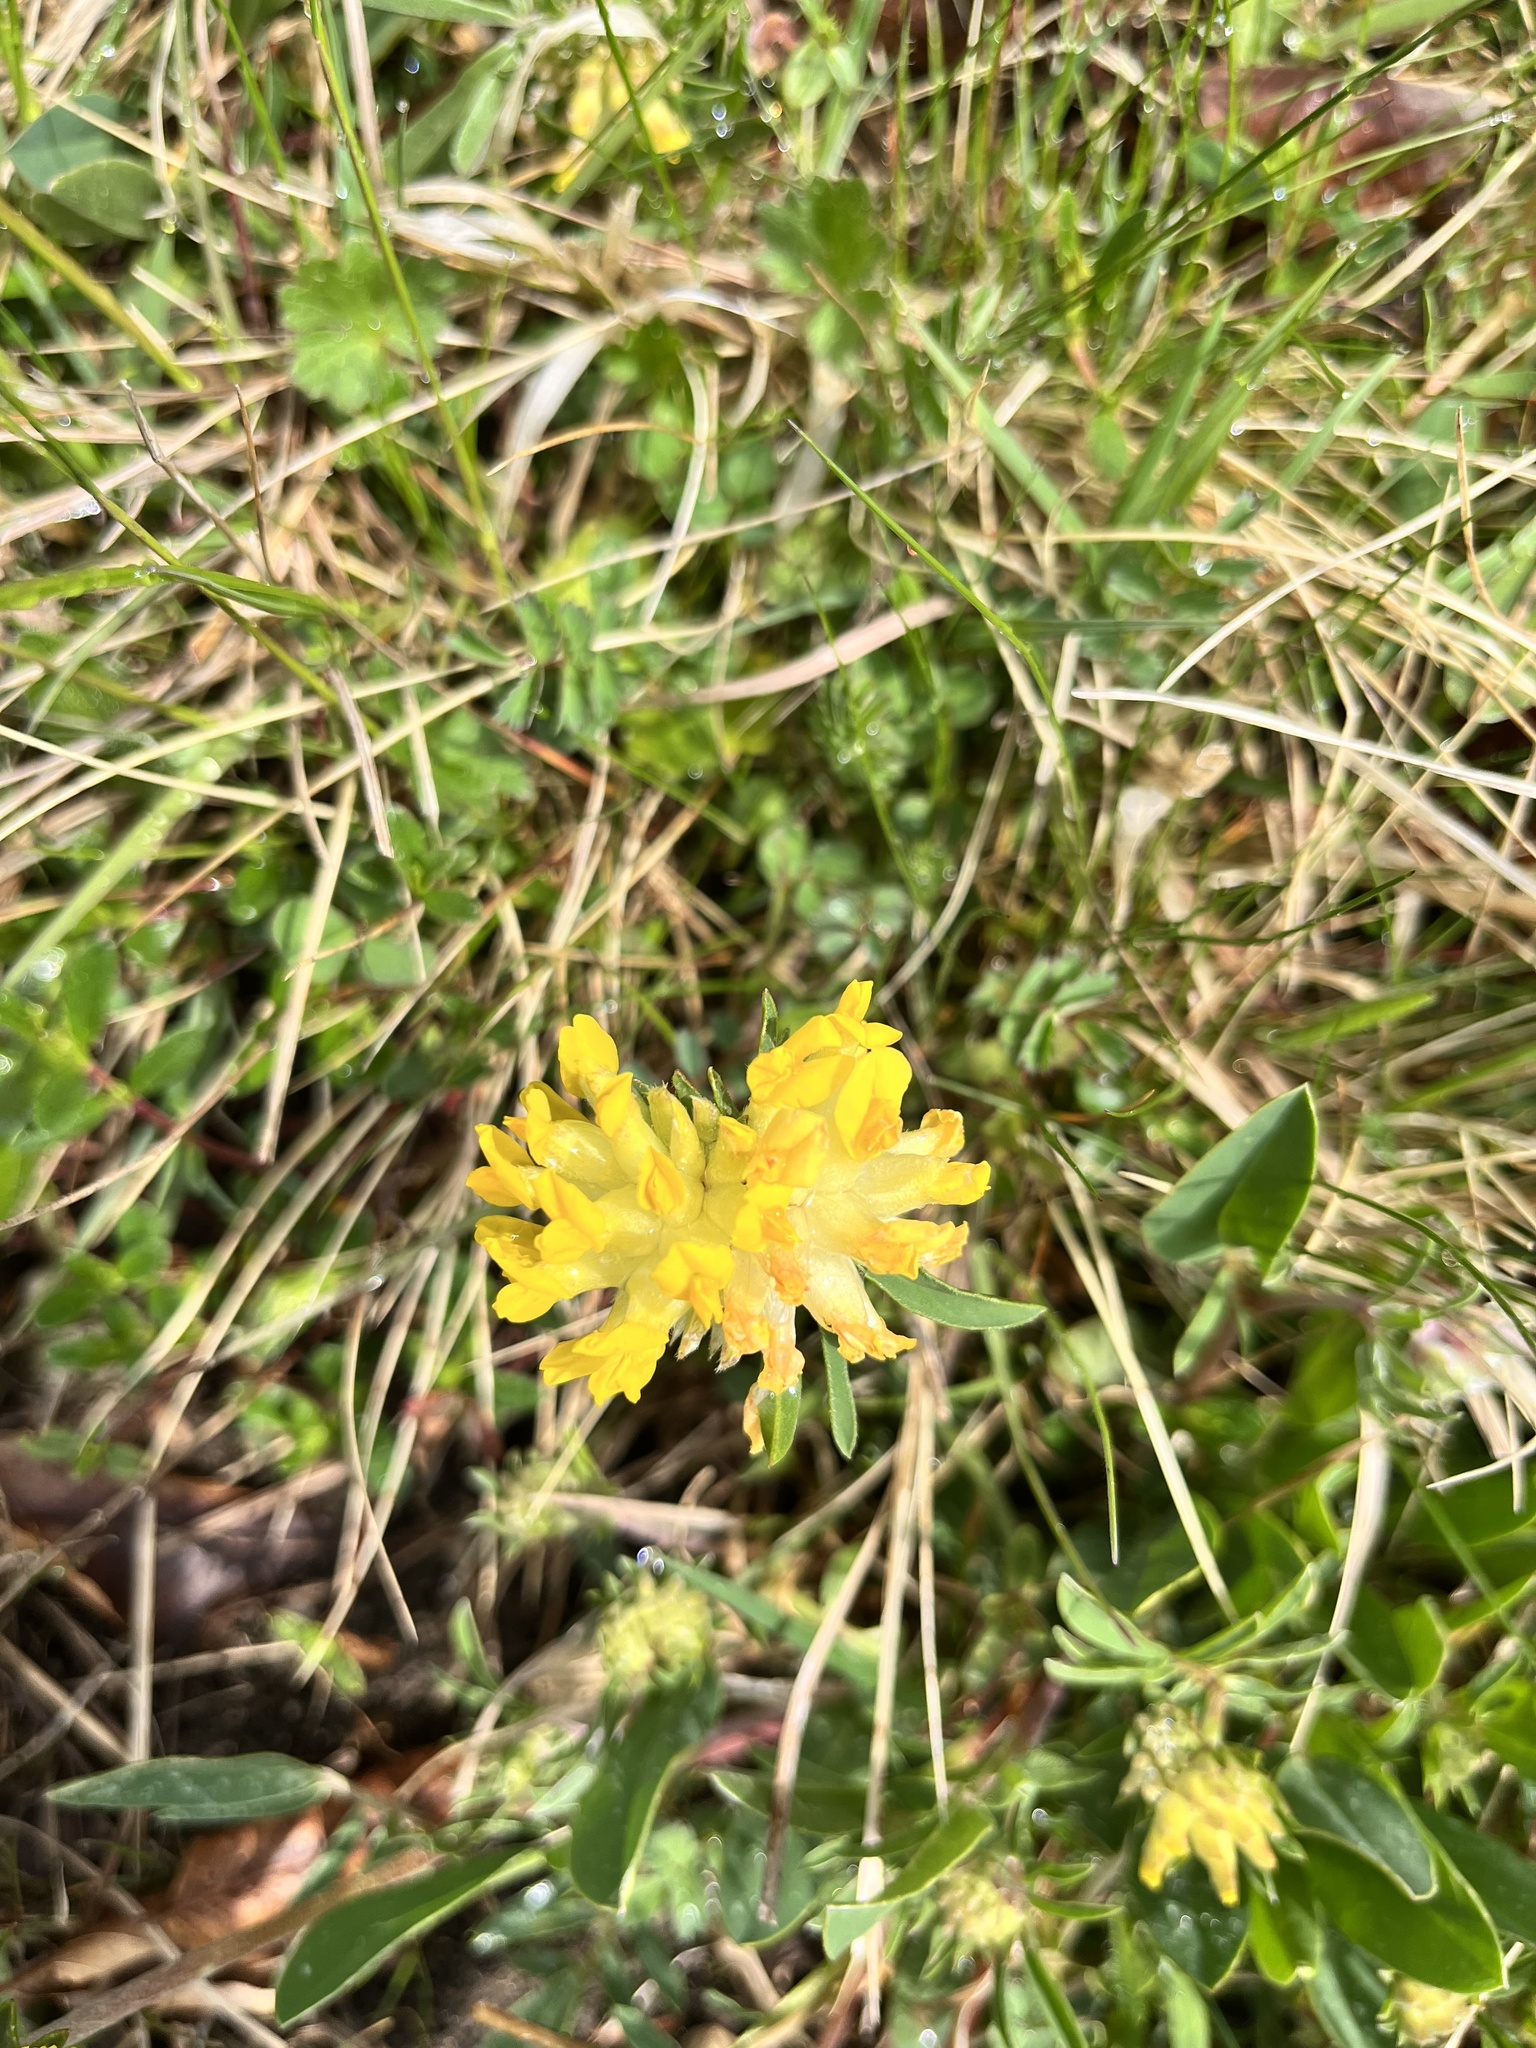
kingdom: Plantae
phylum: Tracheophyta
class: Magnoliopsida
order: Fabales
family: Fabaceae
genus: Anthyllis
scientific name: Anthyllis vulneraria
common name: Kidney vetch
